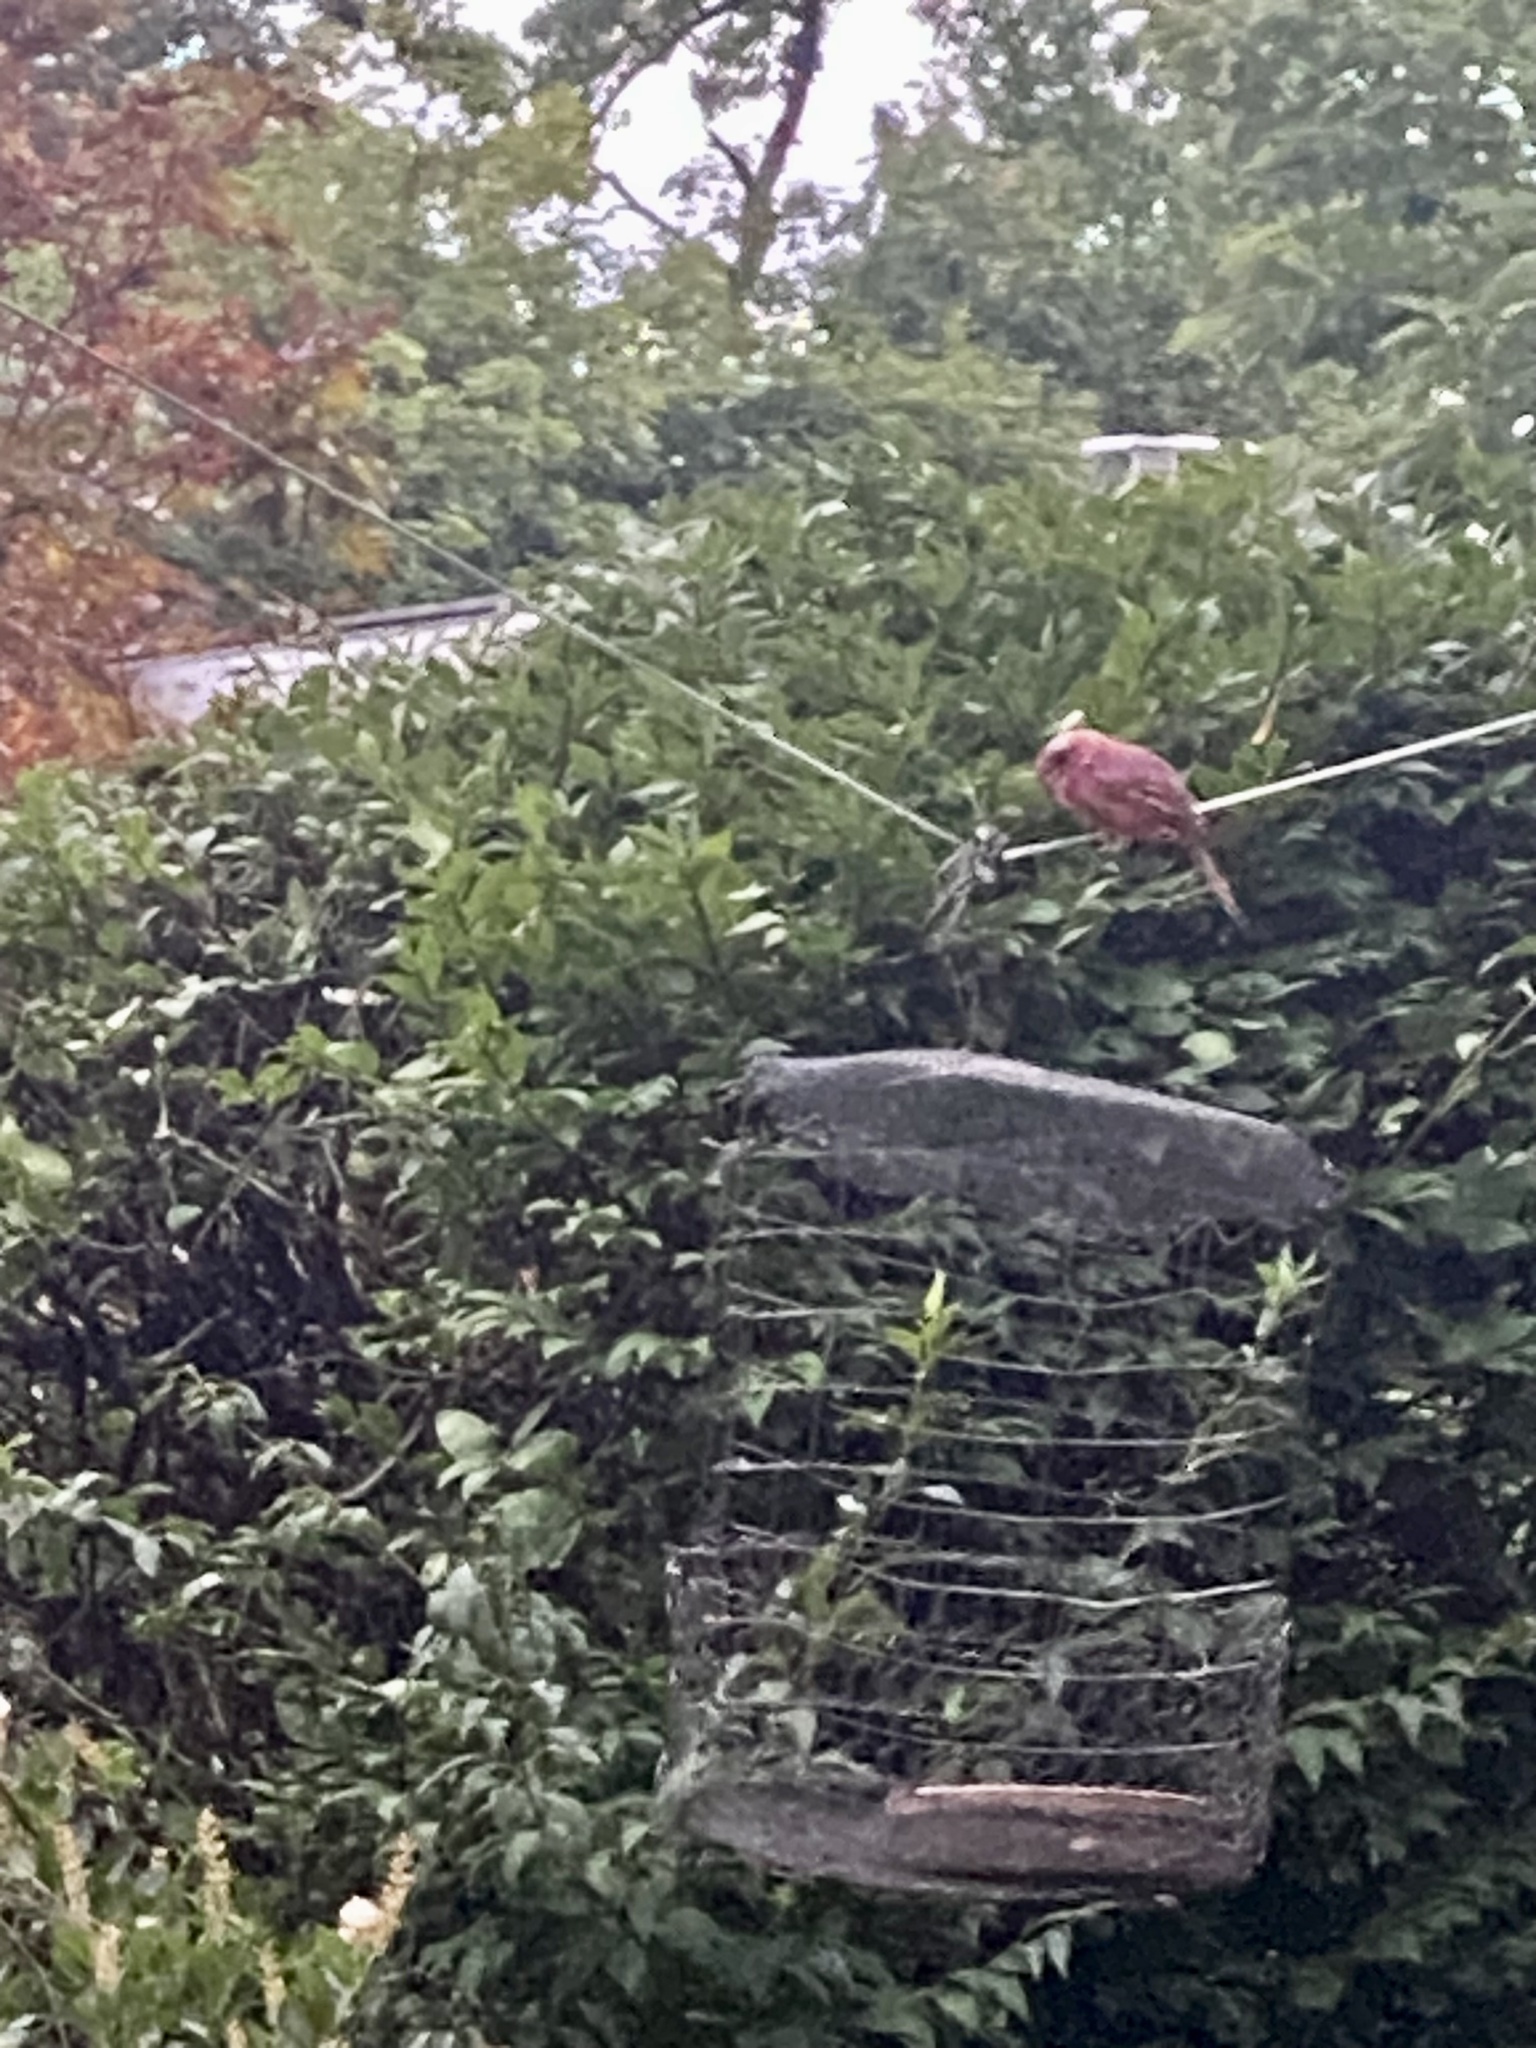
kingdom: Animalia
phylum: Chordata
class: Aves
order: Passeriformes
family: Cardinalidae
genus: Cardinalis
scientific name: Cardinalis cardinalis
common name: Northern cardinal
